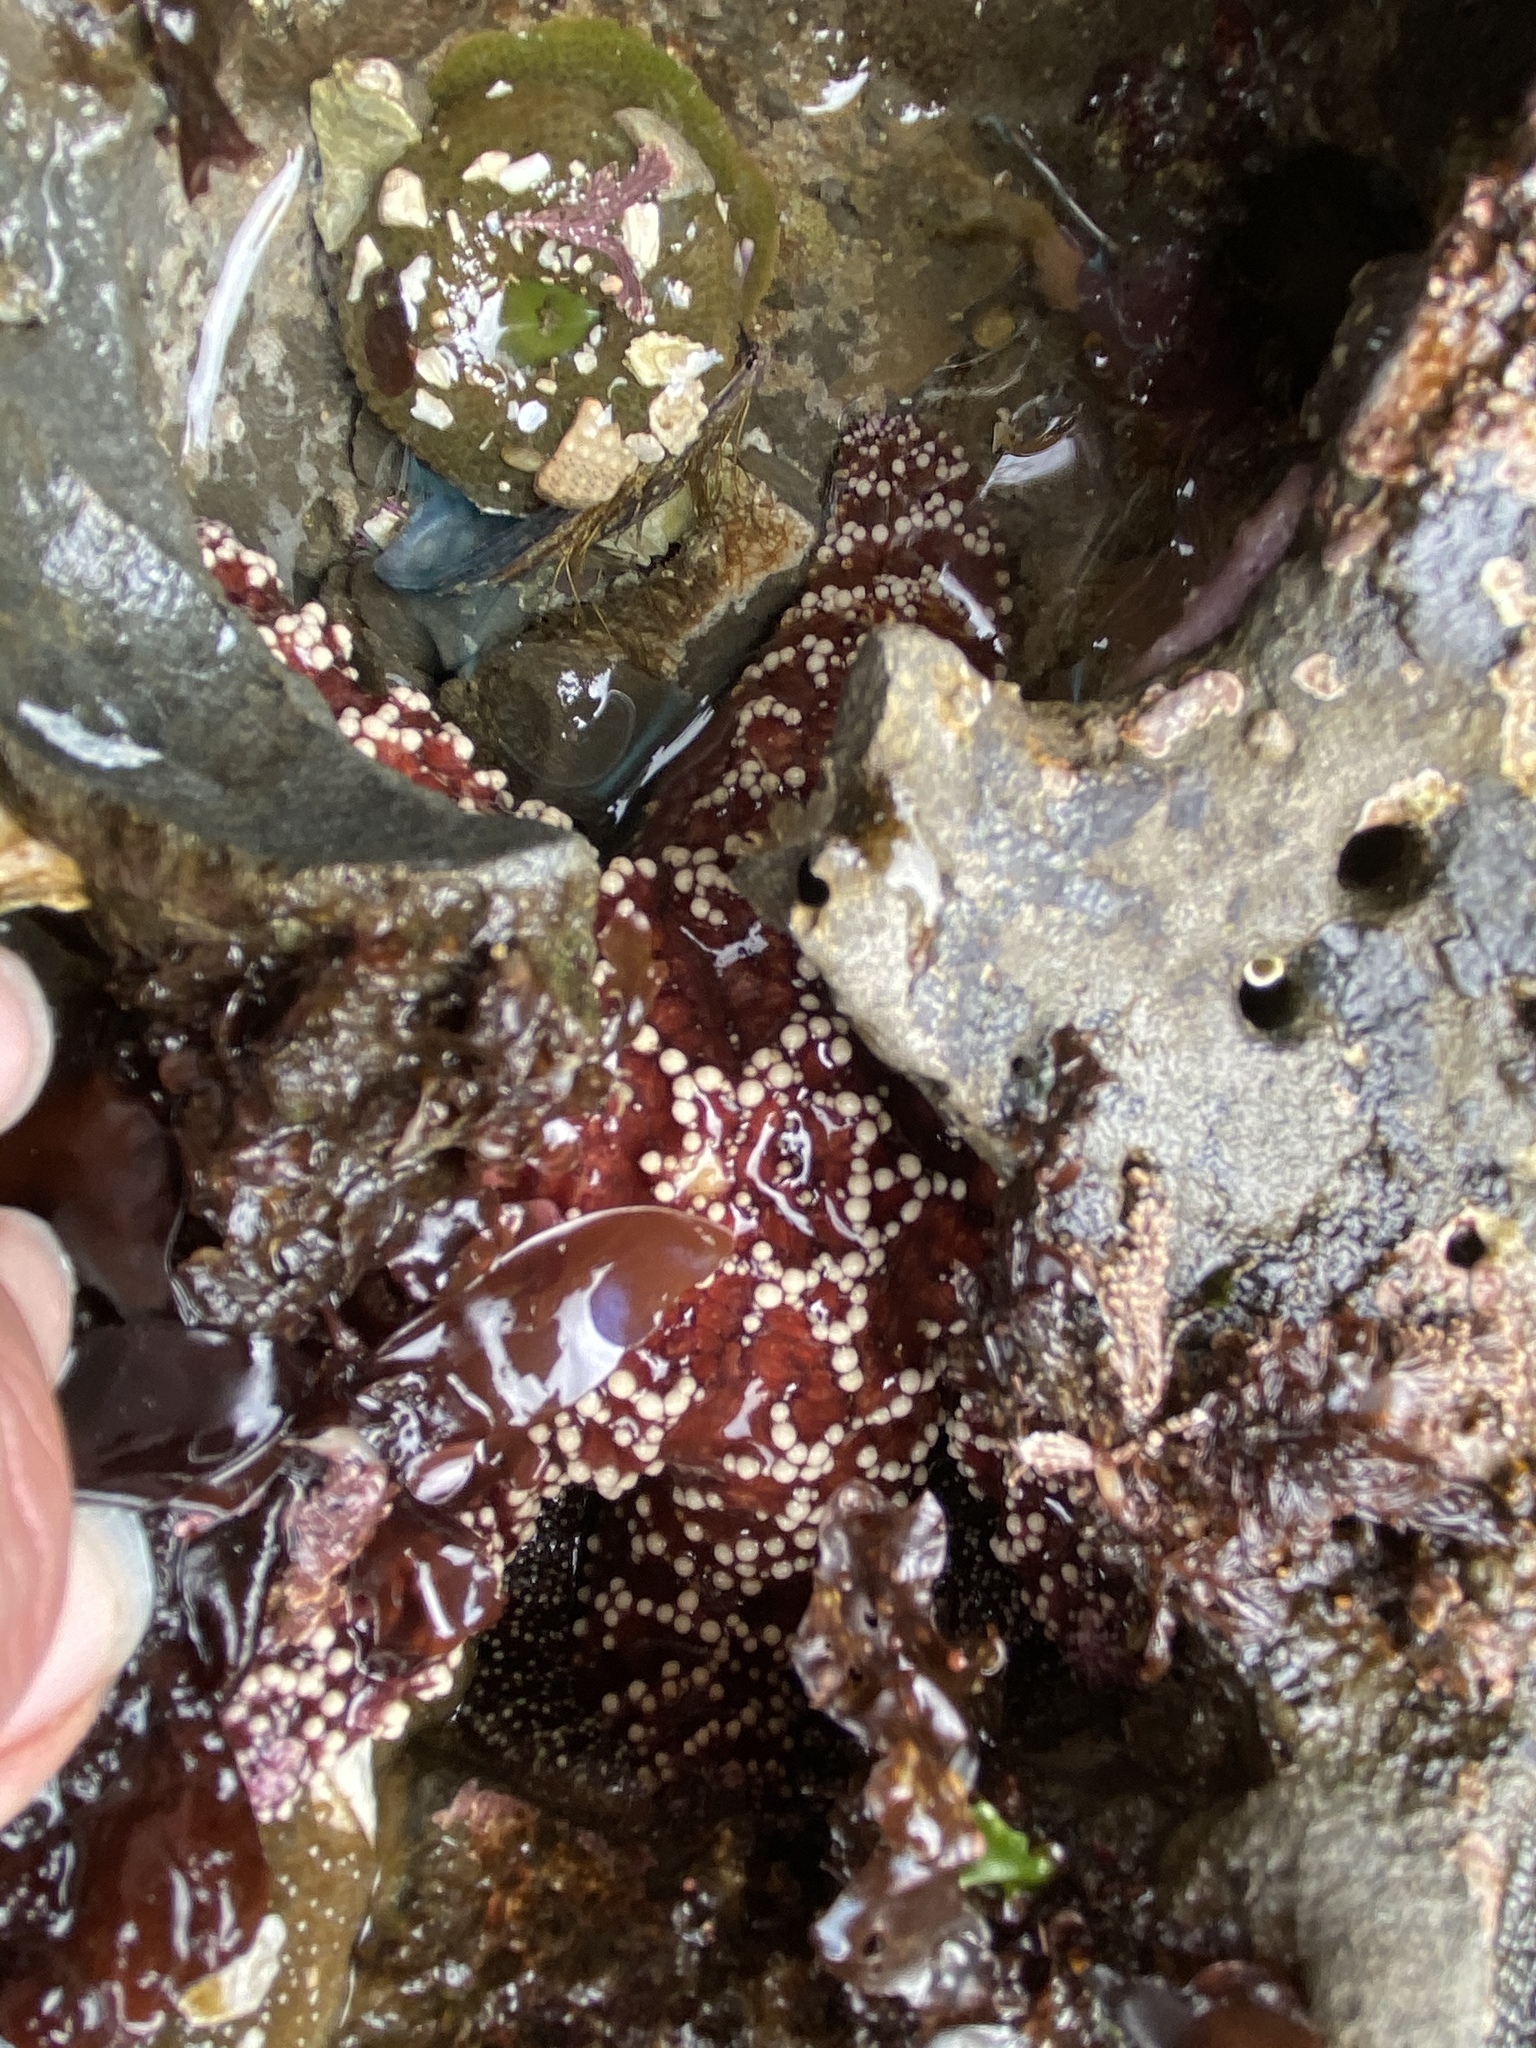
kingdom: Animalia
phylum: Echinodermata
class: Asteroidea
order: Forcipulatida
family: Asteriidae
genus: Pisaster
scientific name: Pisaster ochraceus
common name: Ochre stars
